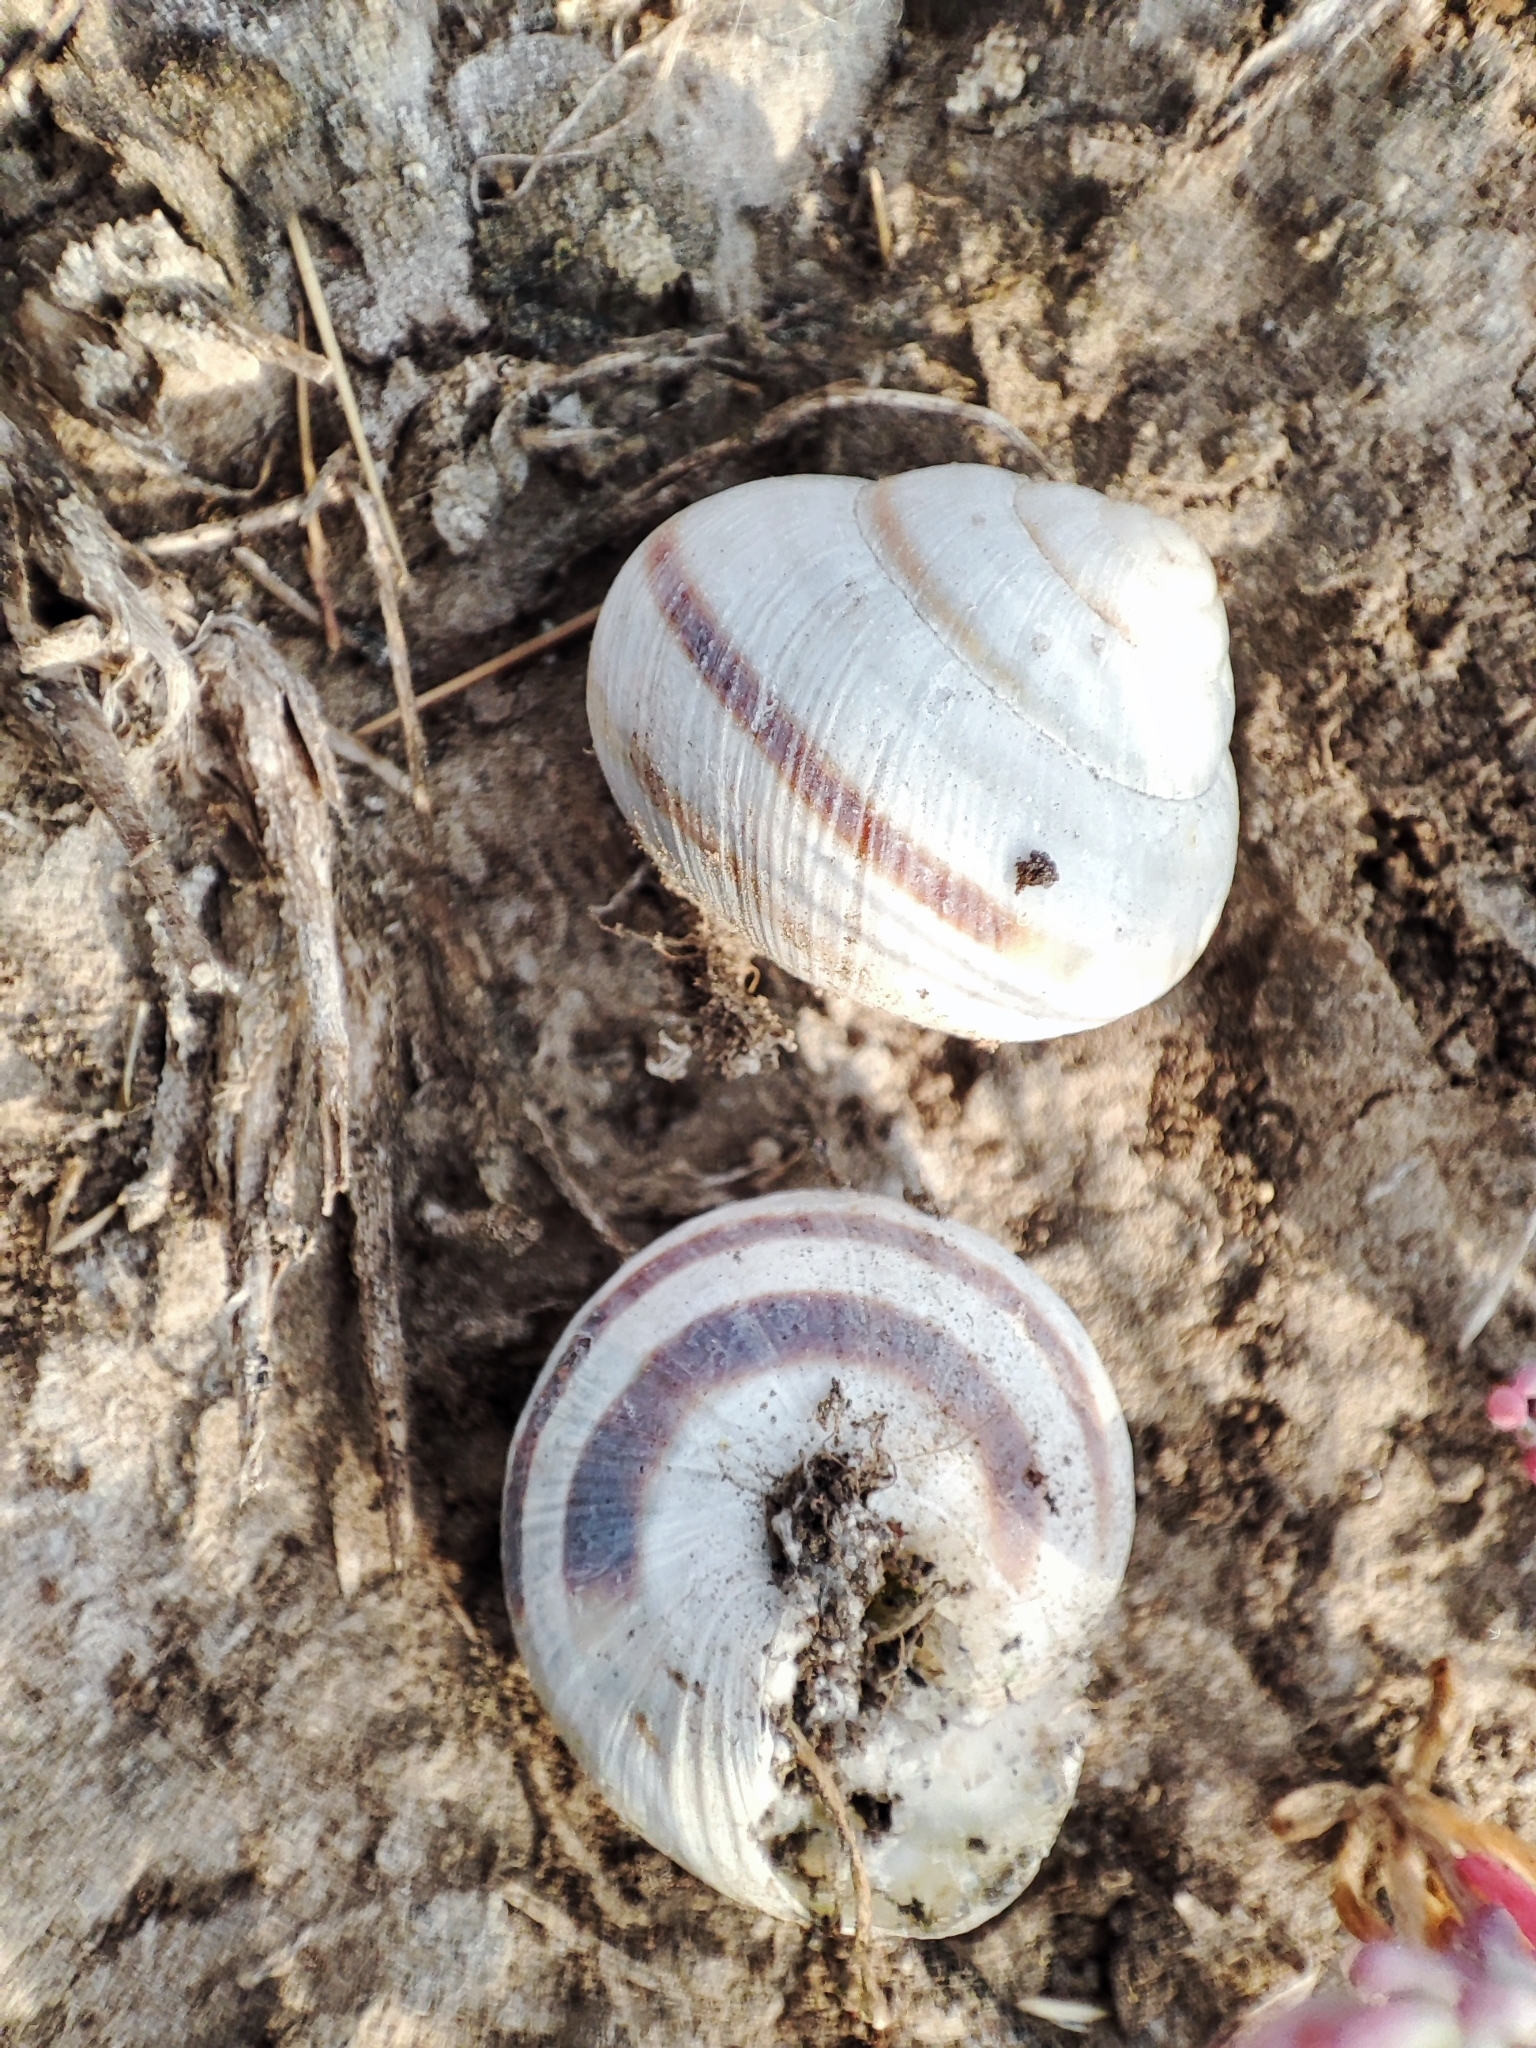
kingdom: Animalia
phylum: Mollusca
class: Gastropoda
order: Stylommatophora
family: Helicidae
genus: Caucasotachea
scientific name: Caucasotachea vindobonensis
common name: European helicid land snail
